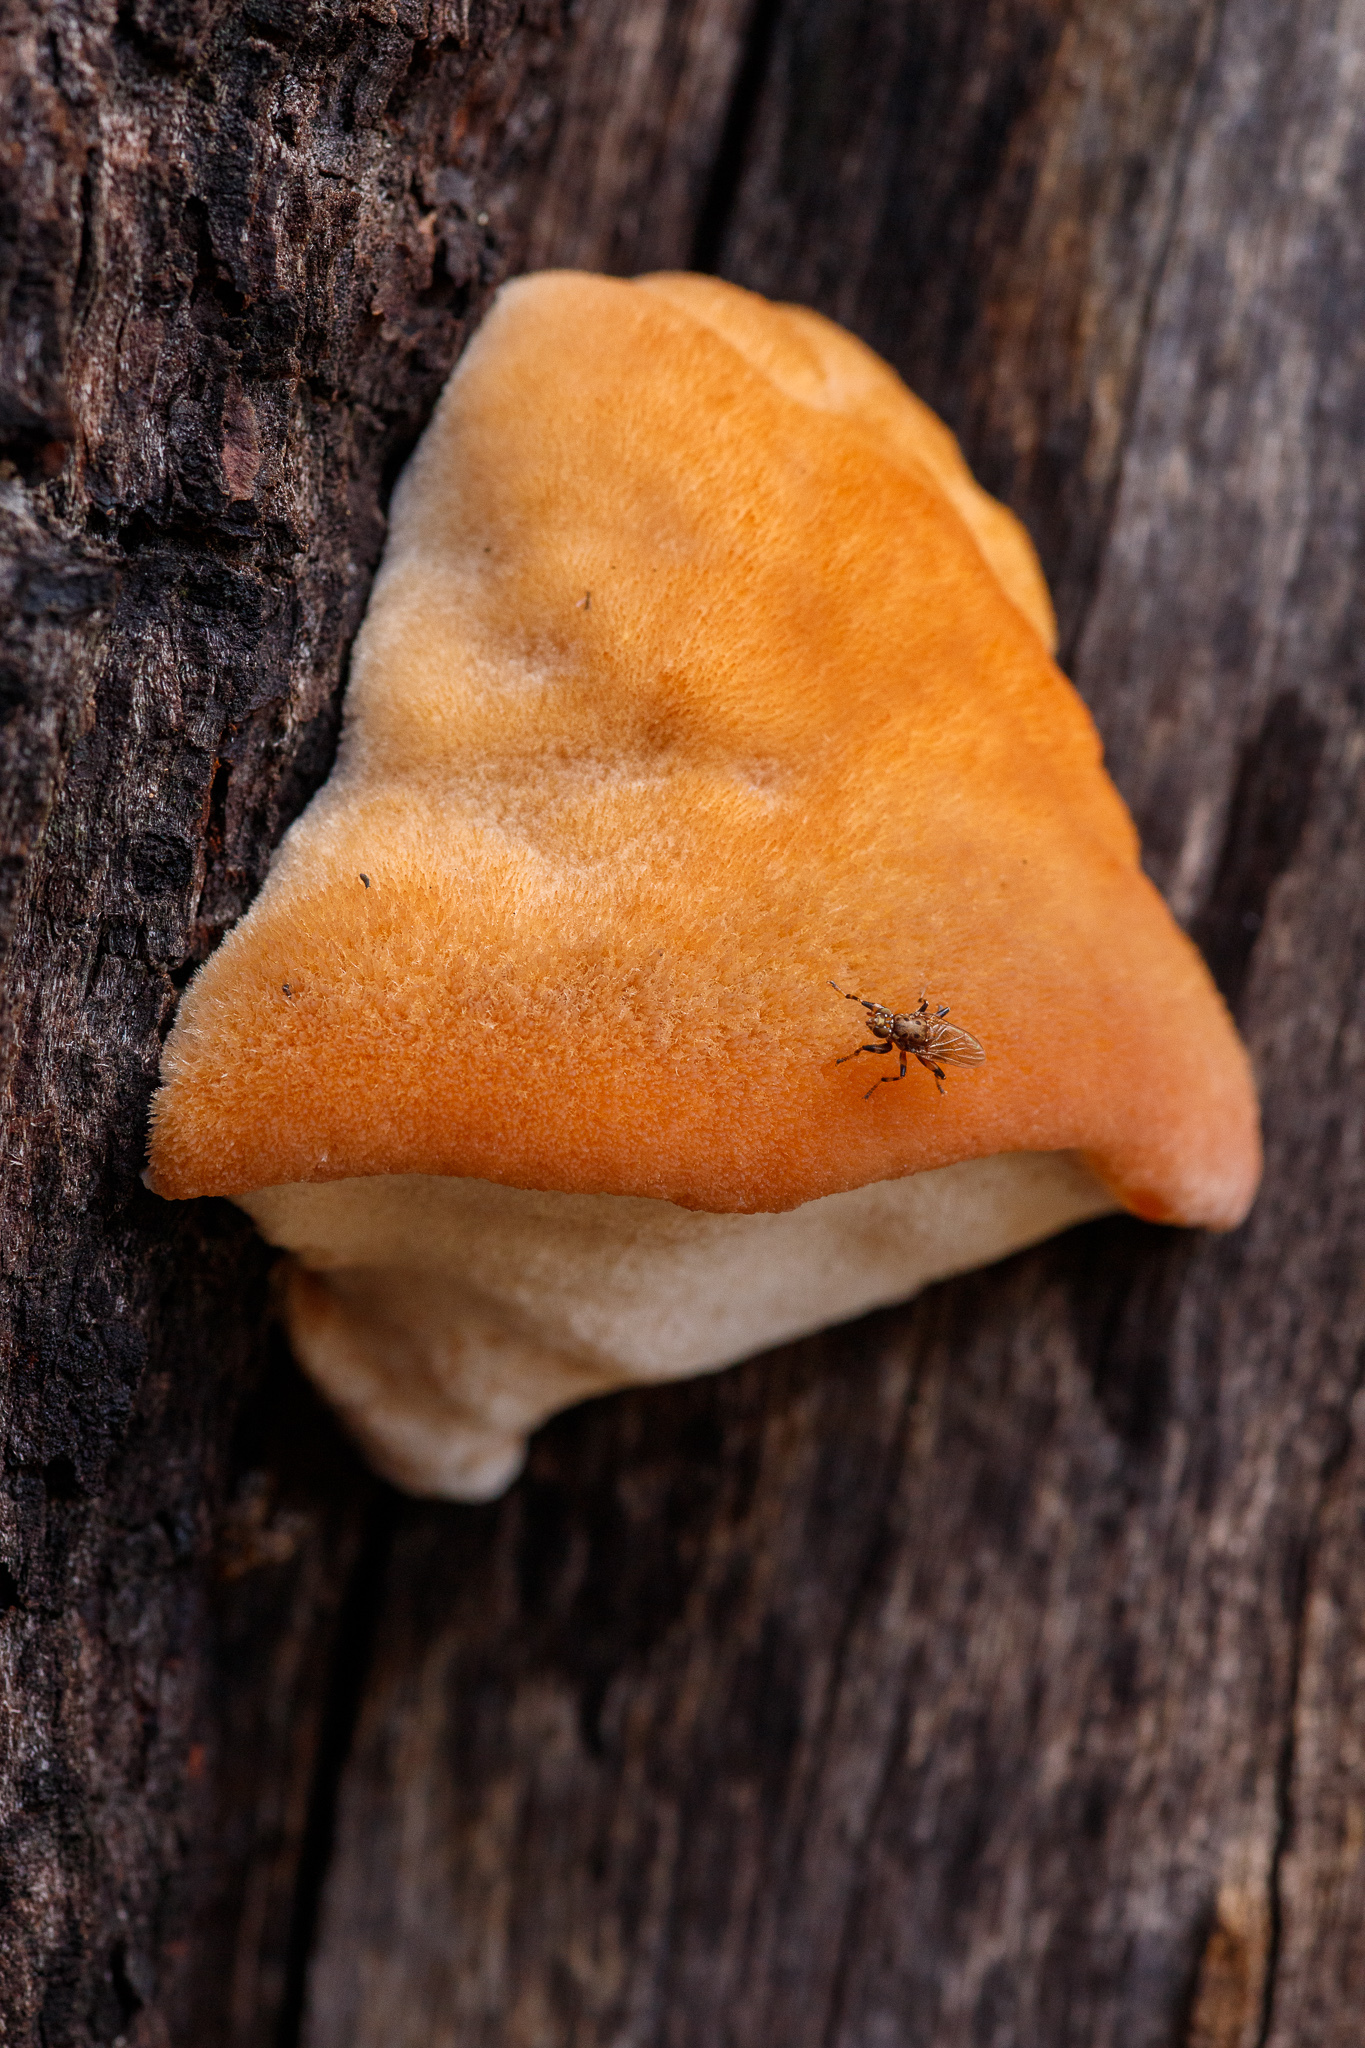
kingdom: Animalia
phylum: Arthropoda
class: Insecta
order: Diptera
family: Heleomyzidae
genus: Tapeigaster
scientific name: Tapeigaster cinctipes
